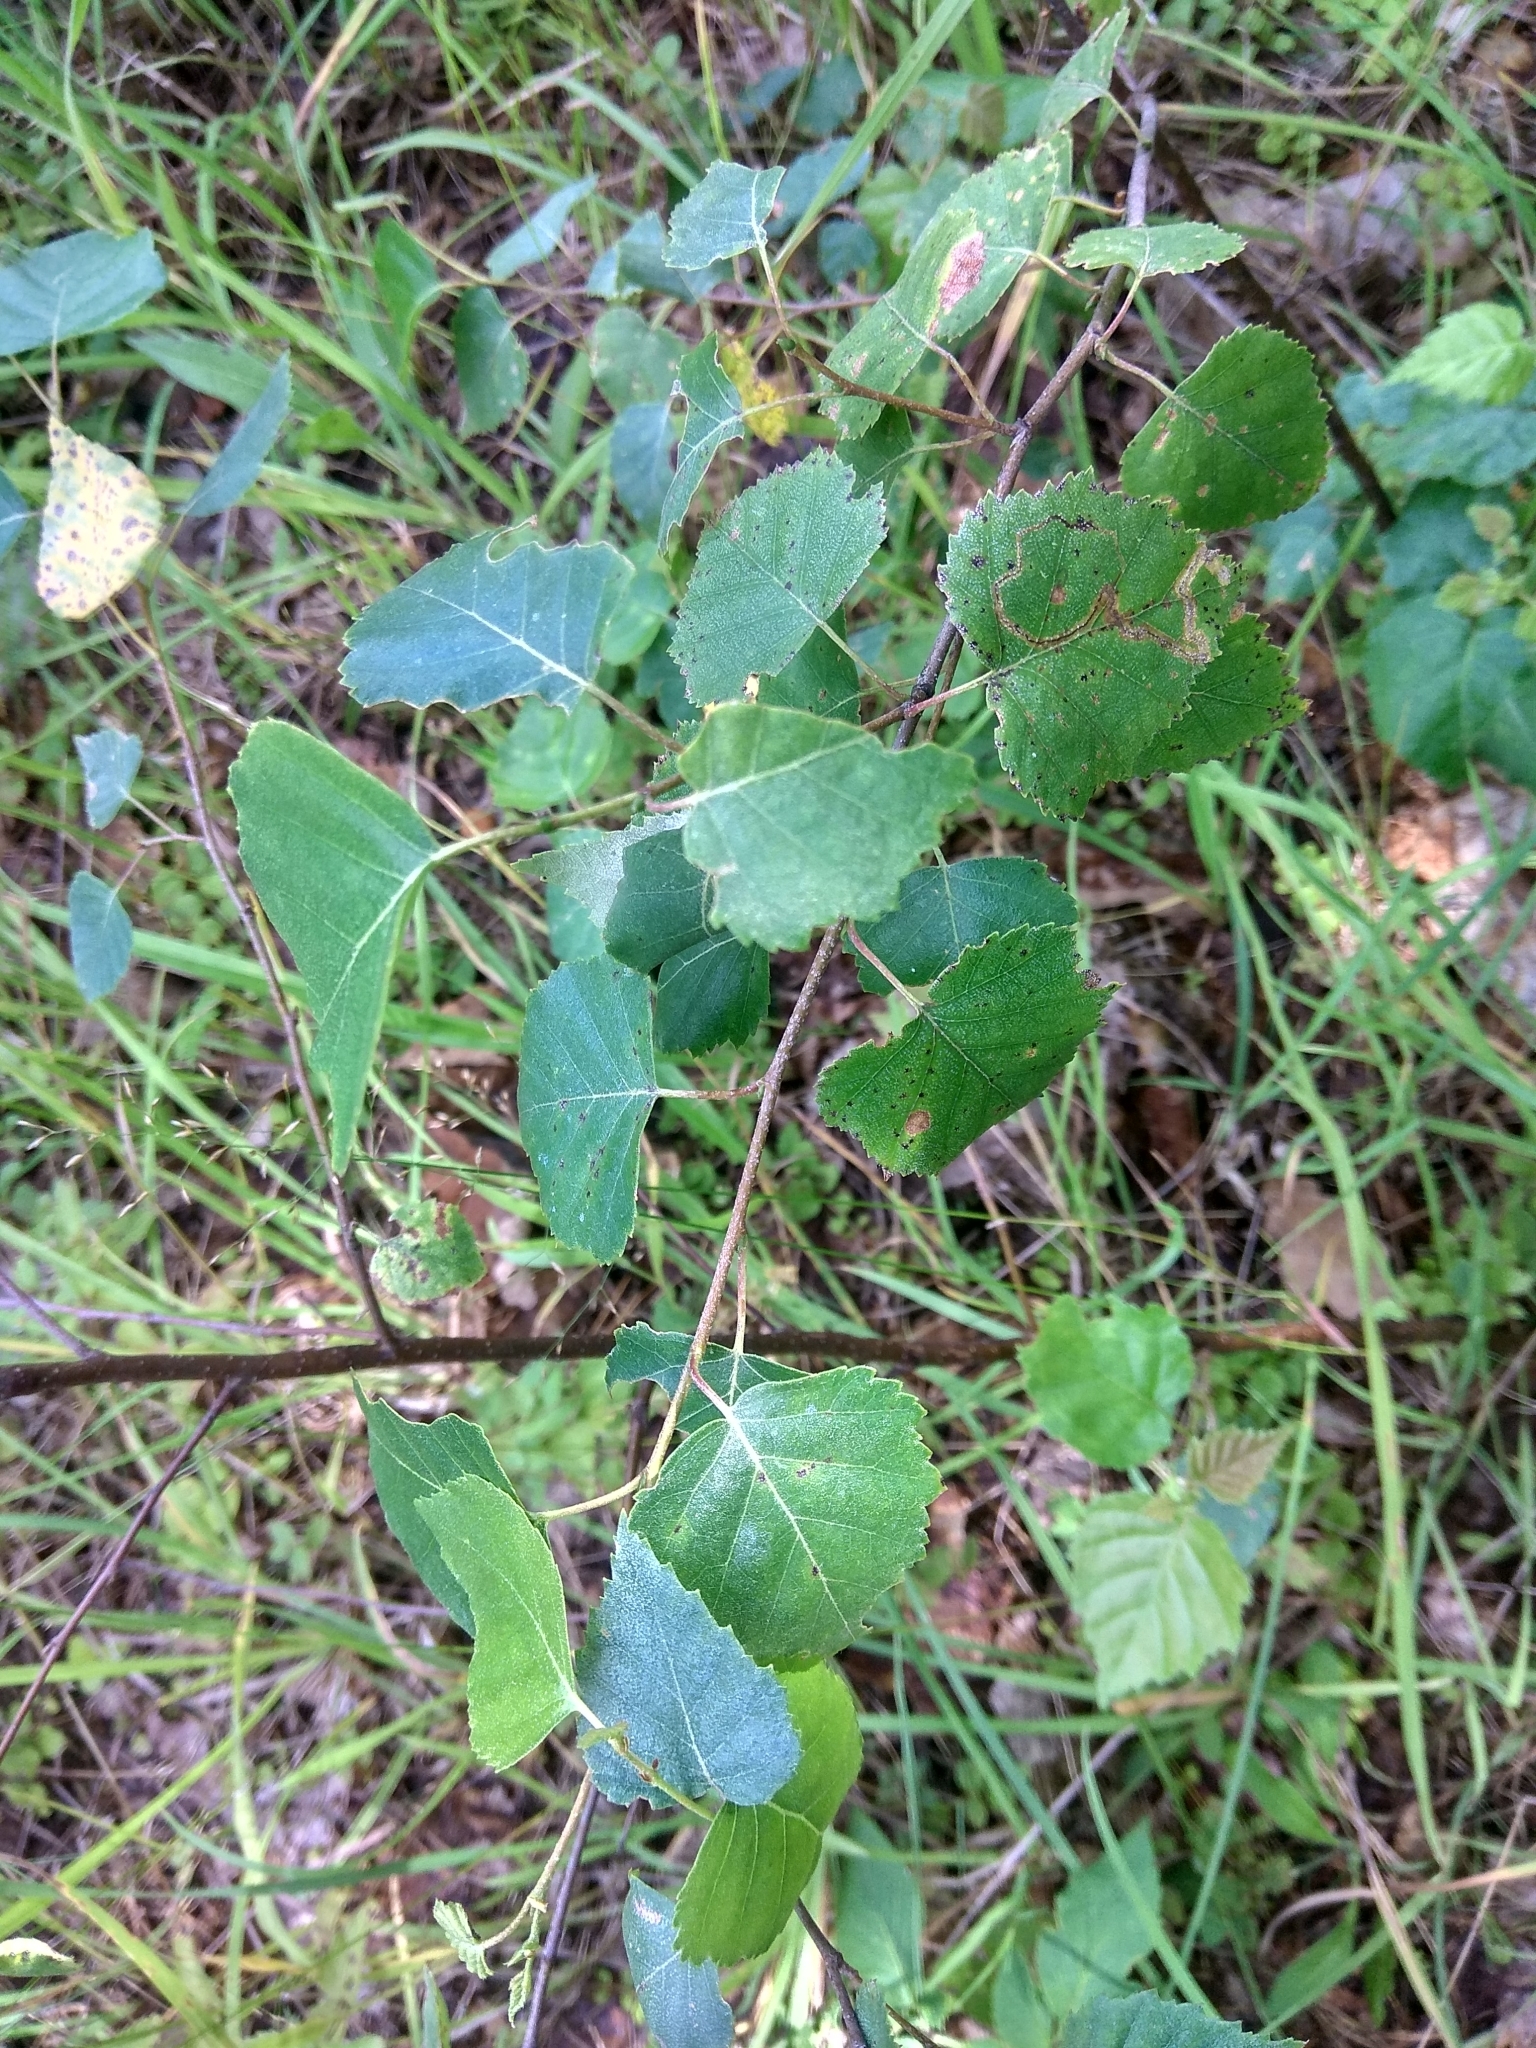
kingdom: Plantae
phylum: Tracheophyta
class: Magnoliopsida
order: Fagales
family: Betulaceae
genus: Betula
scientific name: Betula pendula
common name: Silver birch
